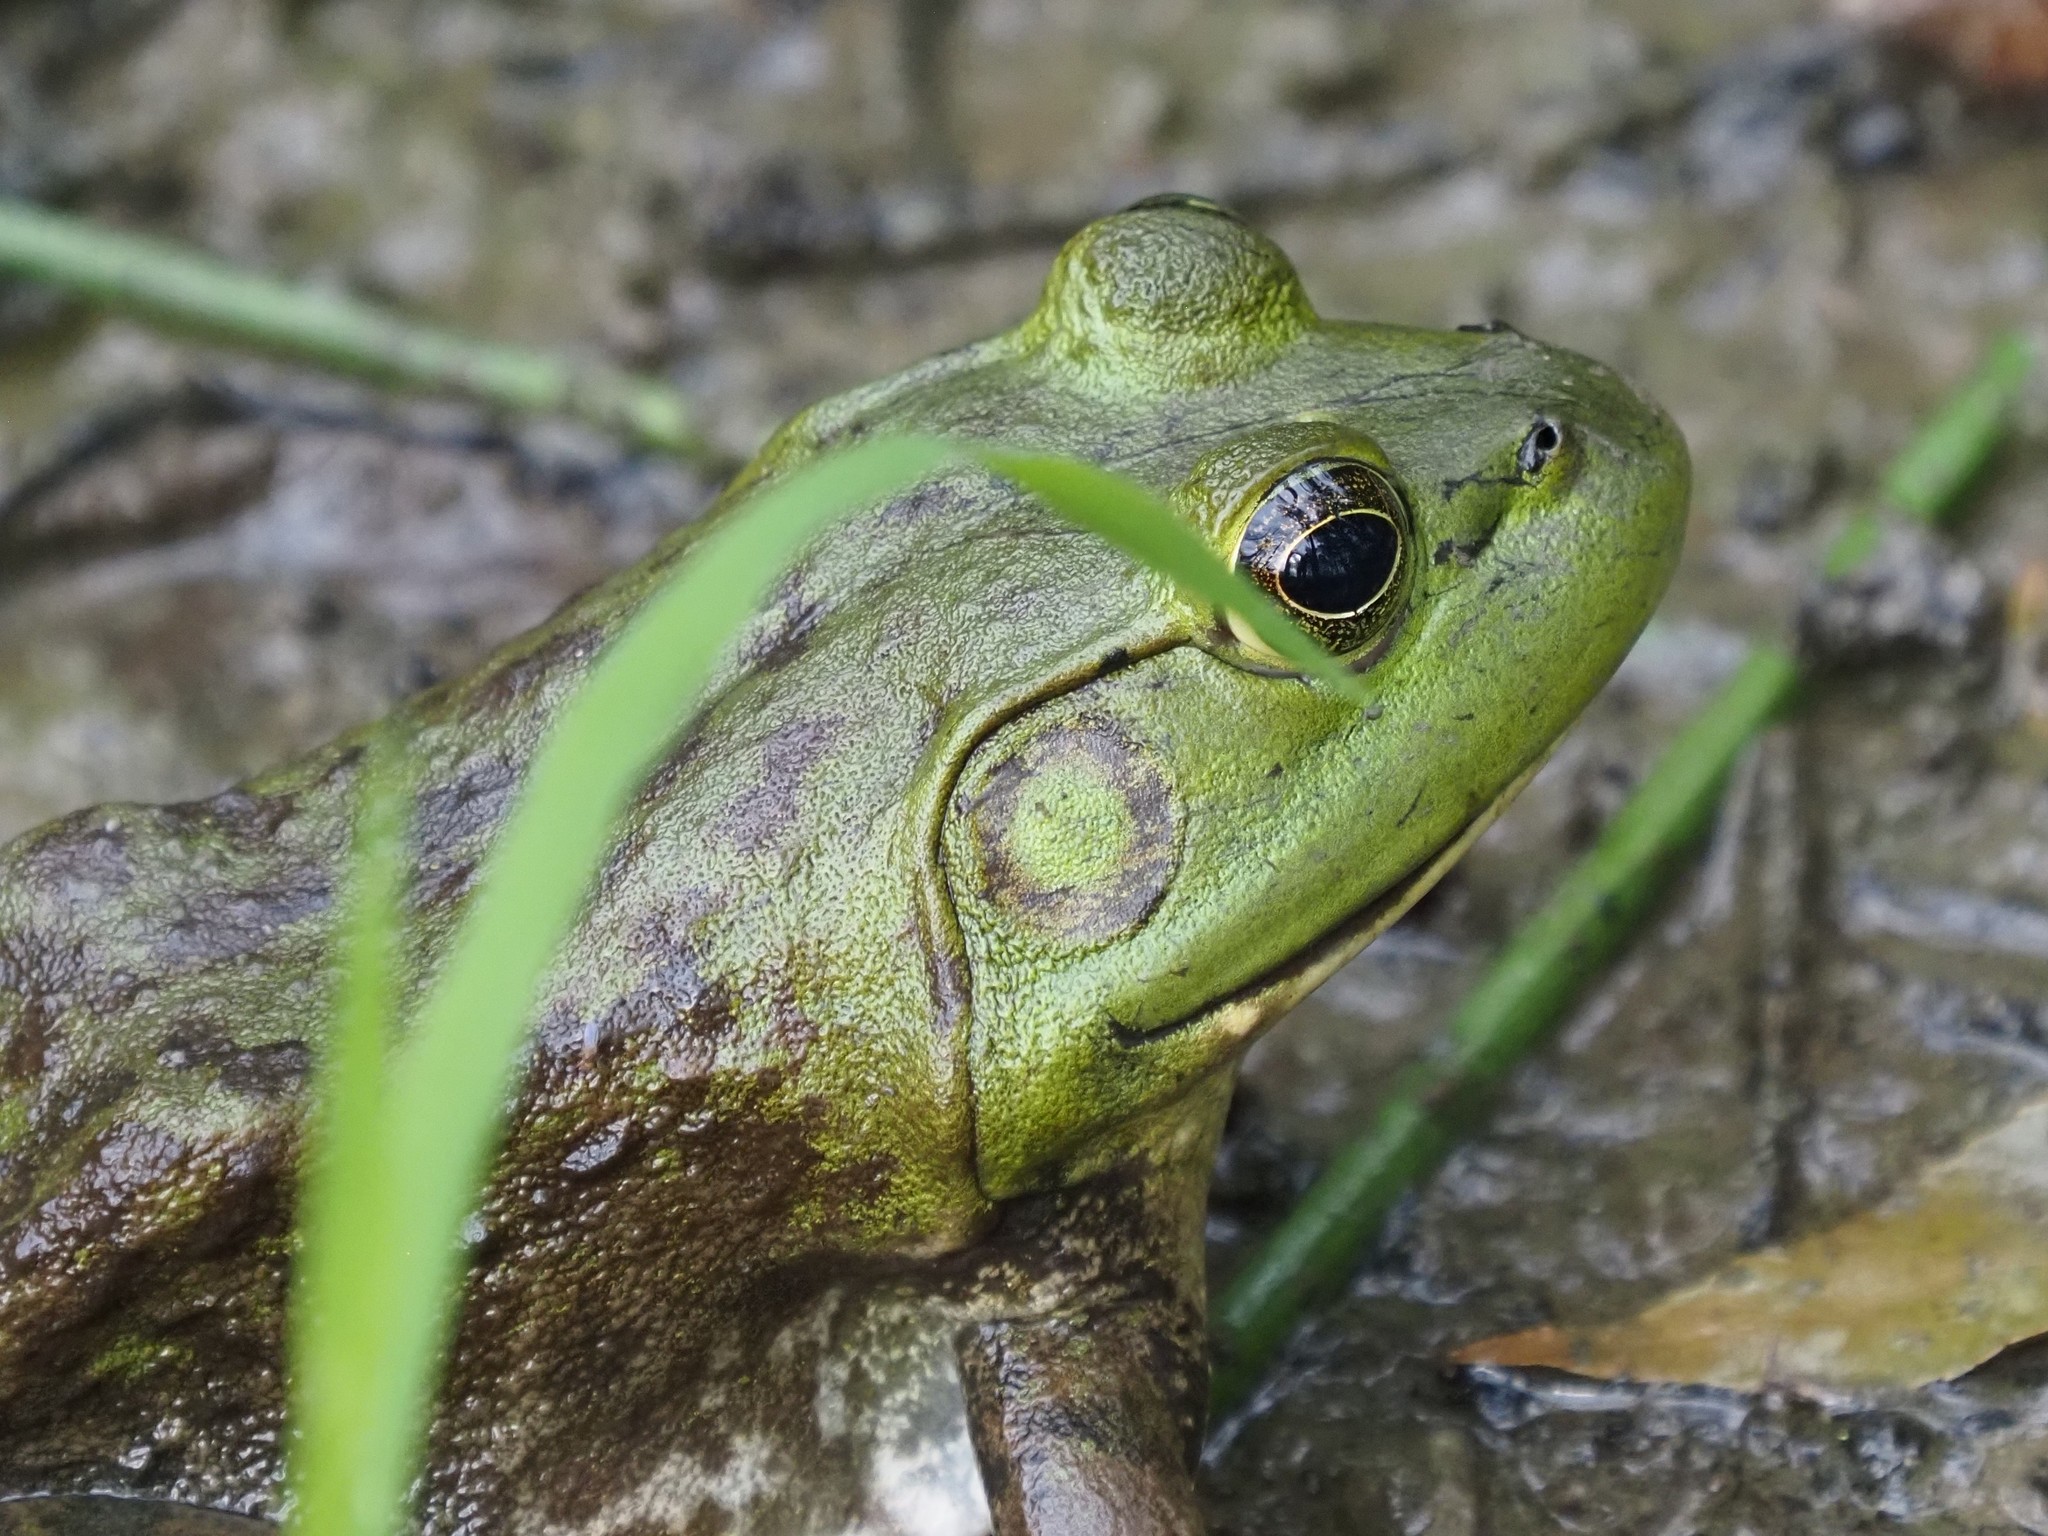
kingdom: Animalia
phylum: Chordata
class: Amphibia
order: Anura
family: Ranidae
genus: Lithobates
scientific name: Lithobates catesbeianus
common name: American bullfrog
